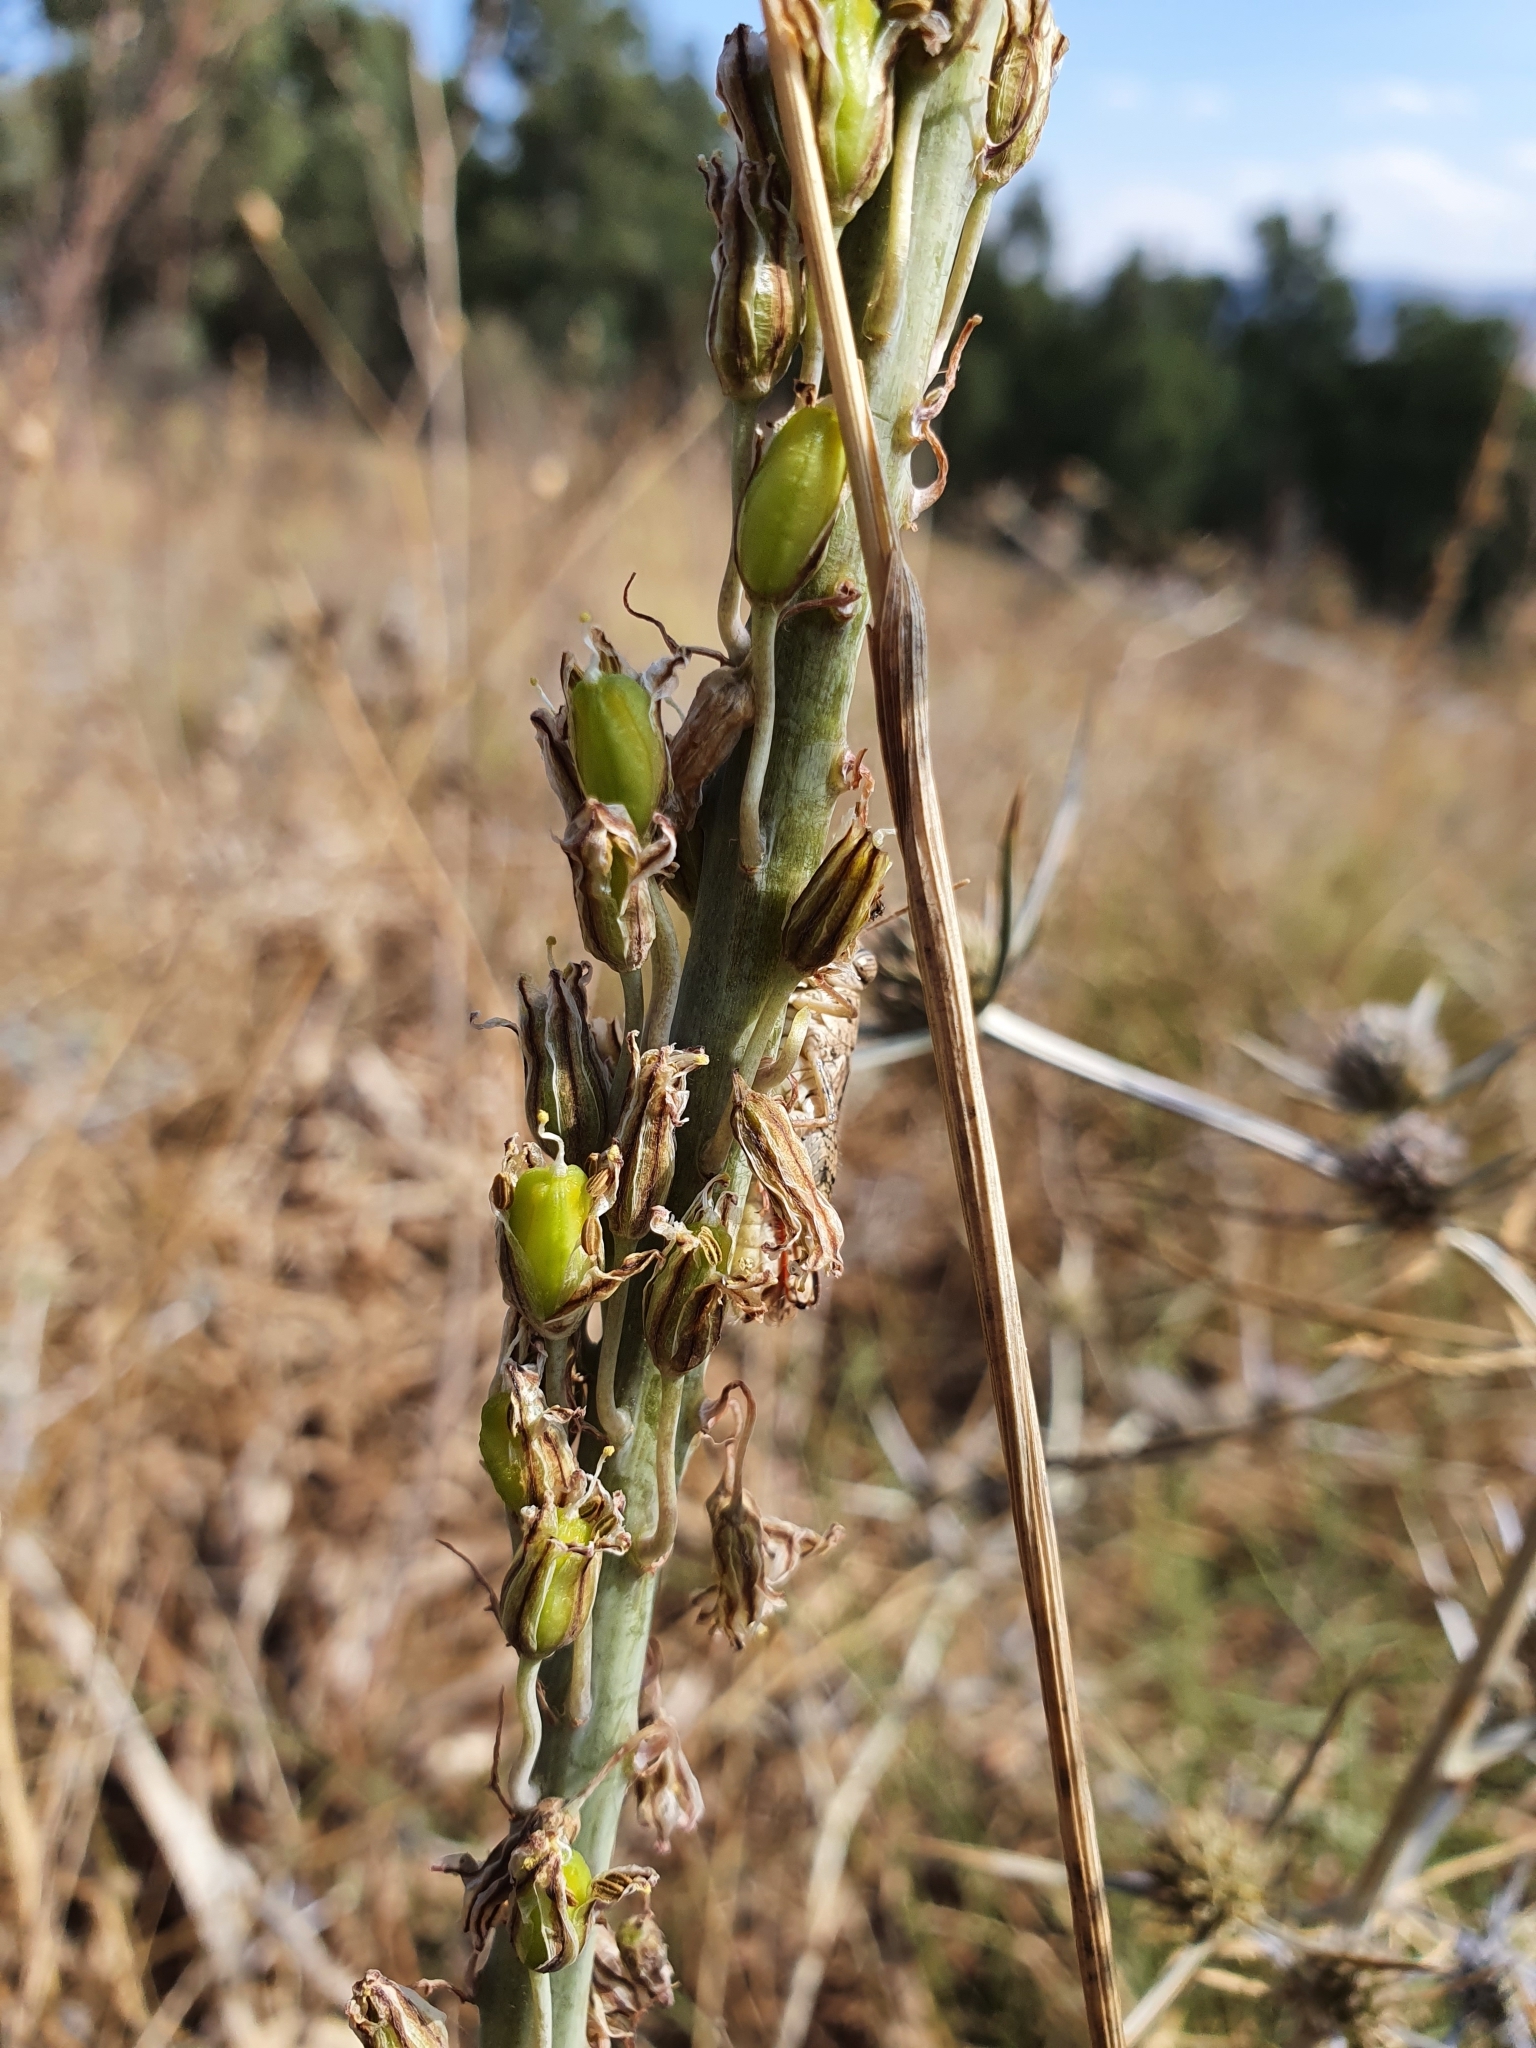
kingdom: Plantae
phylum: Tracheophyta
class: Liliopsida
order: Asparagales
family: Asparagaceae
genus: Drimia
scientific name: Drimia anthericoides
